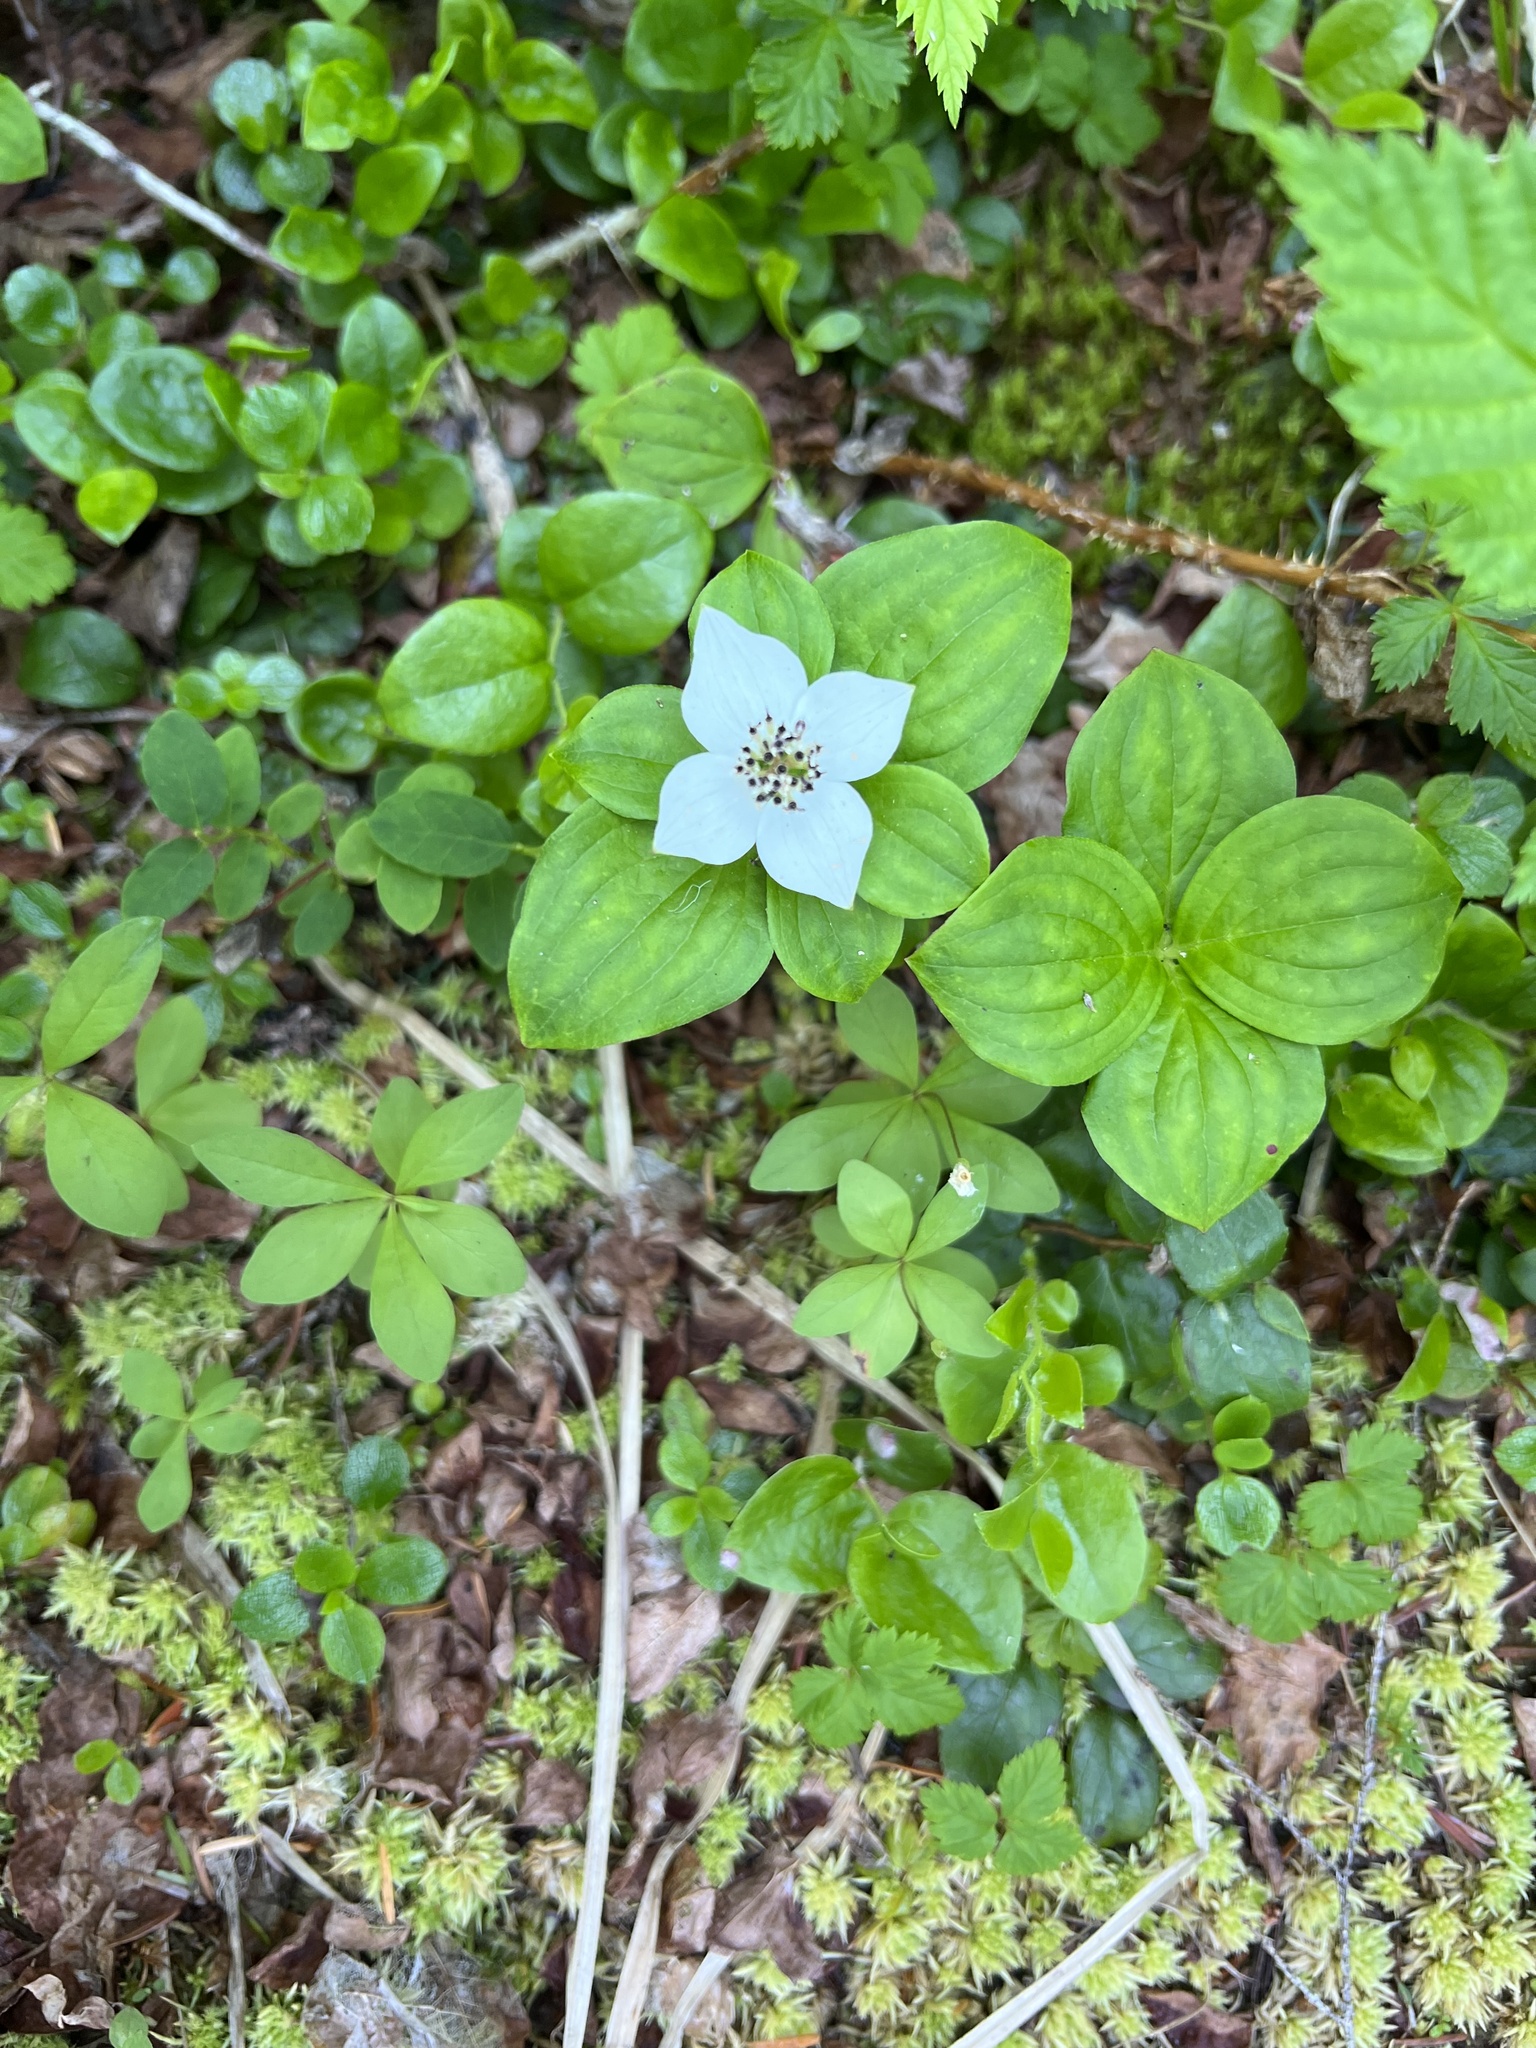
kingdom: Plantae
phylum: Tracheophyta
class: Magnoliopsida
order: Cornales
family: Cornaceae
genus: Cornus
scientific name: Cornus unalaschkensis
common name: Alaska bunchberry
